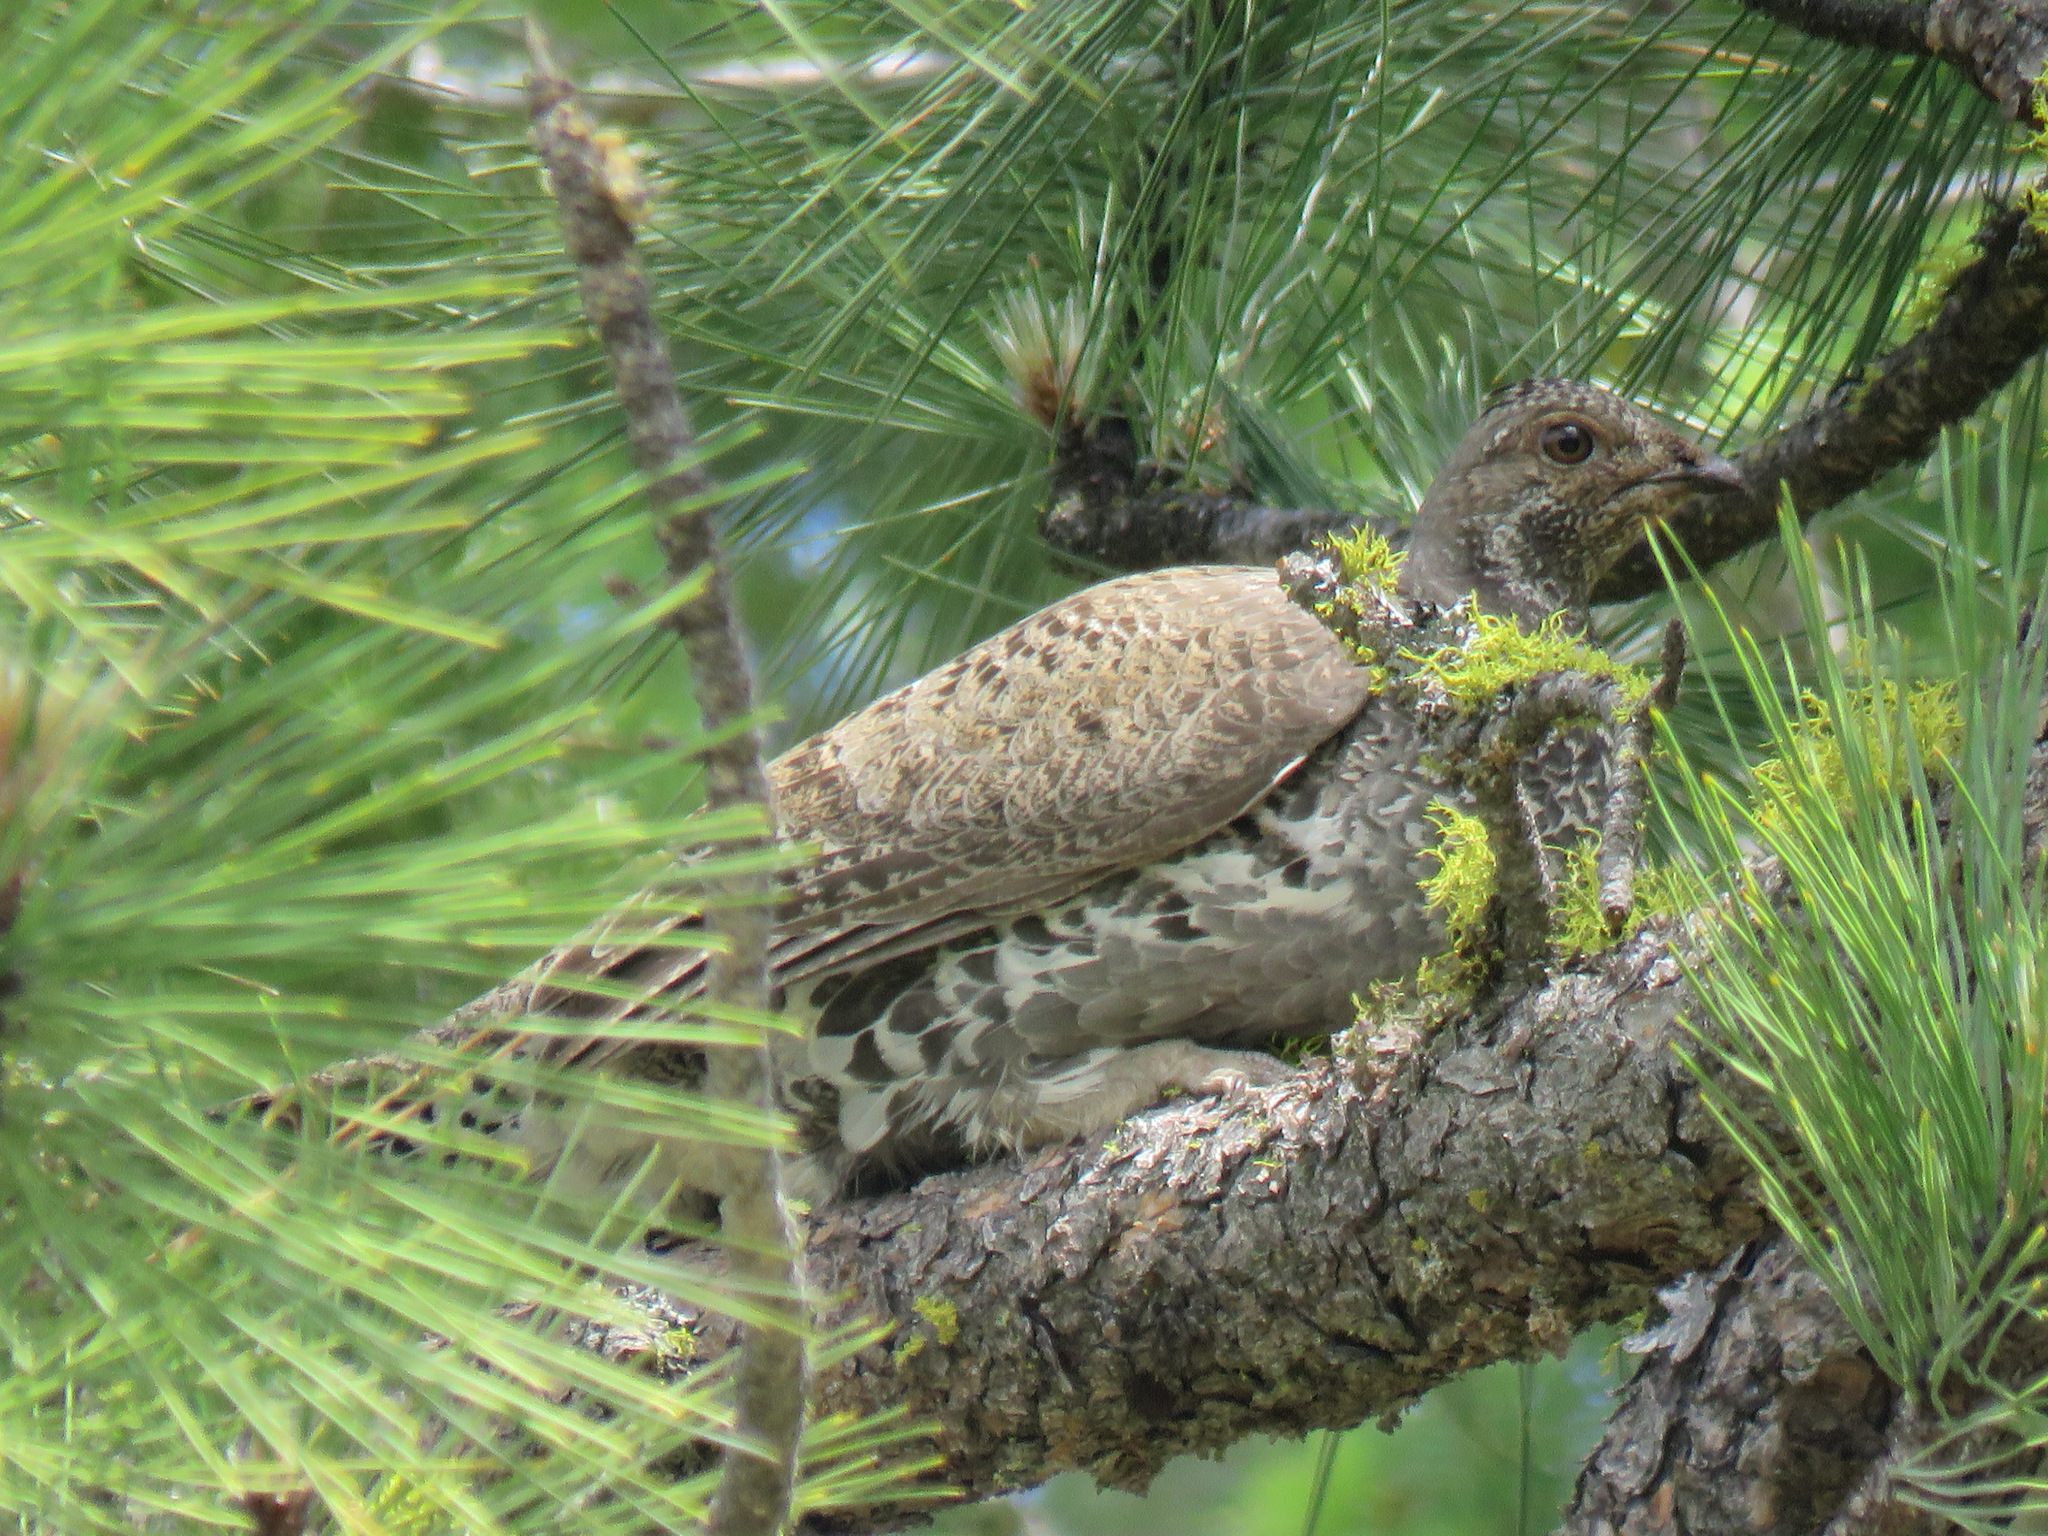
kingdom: Animalia
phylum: Chordata
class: Aves
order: Galliformes
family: Phasianidae
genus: Dendragapus
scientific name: Dendragapus obscurus
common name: Dusky grouse
